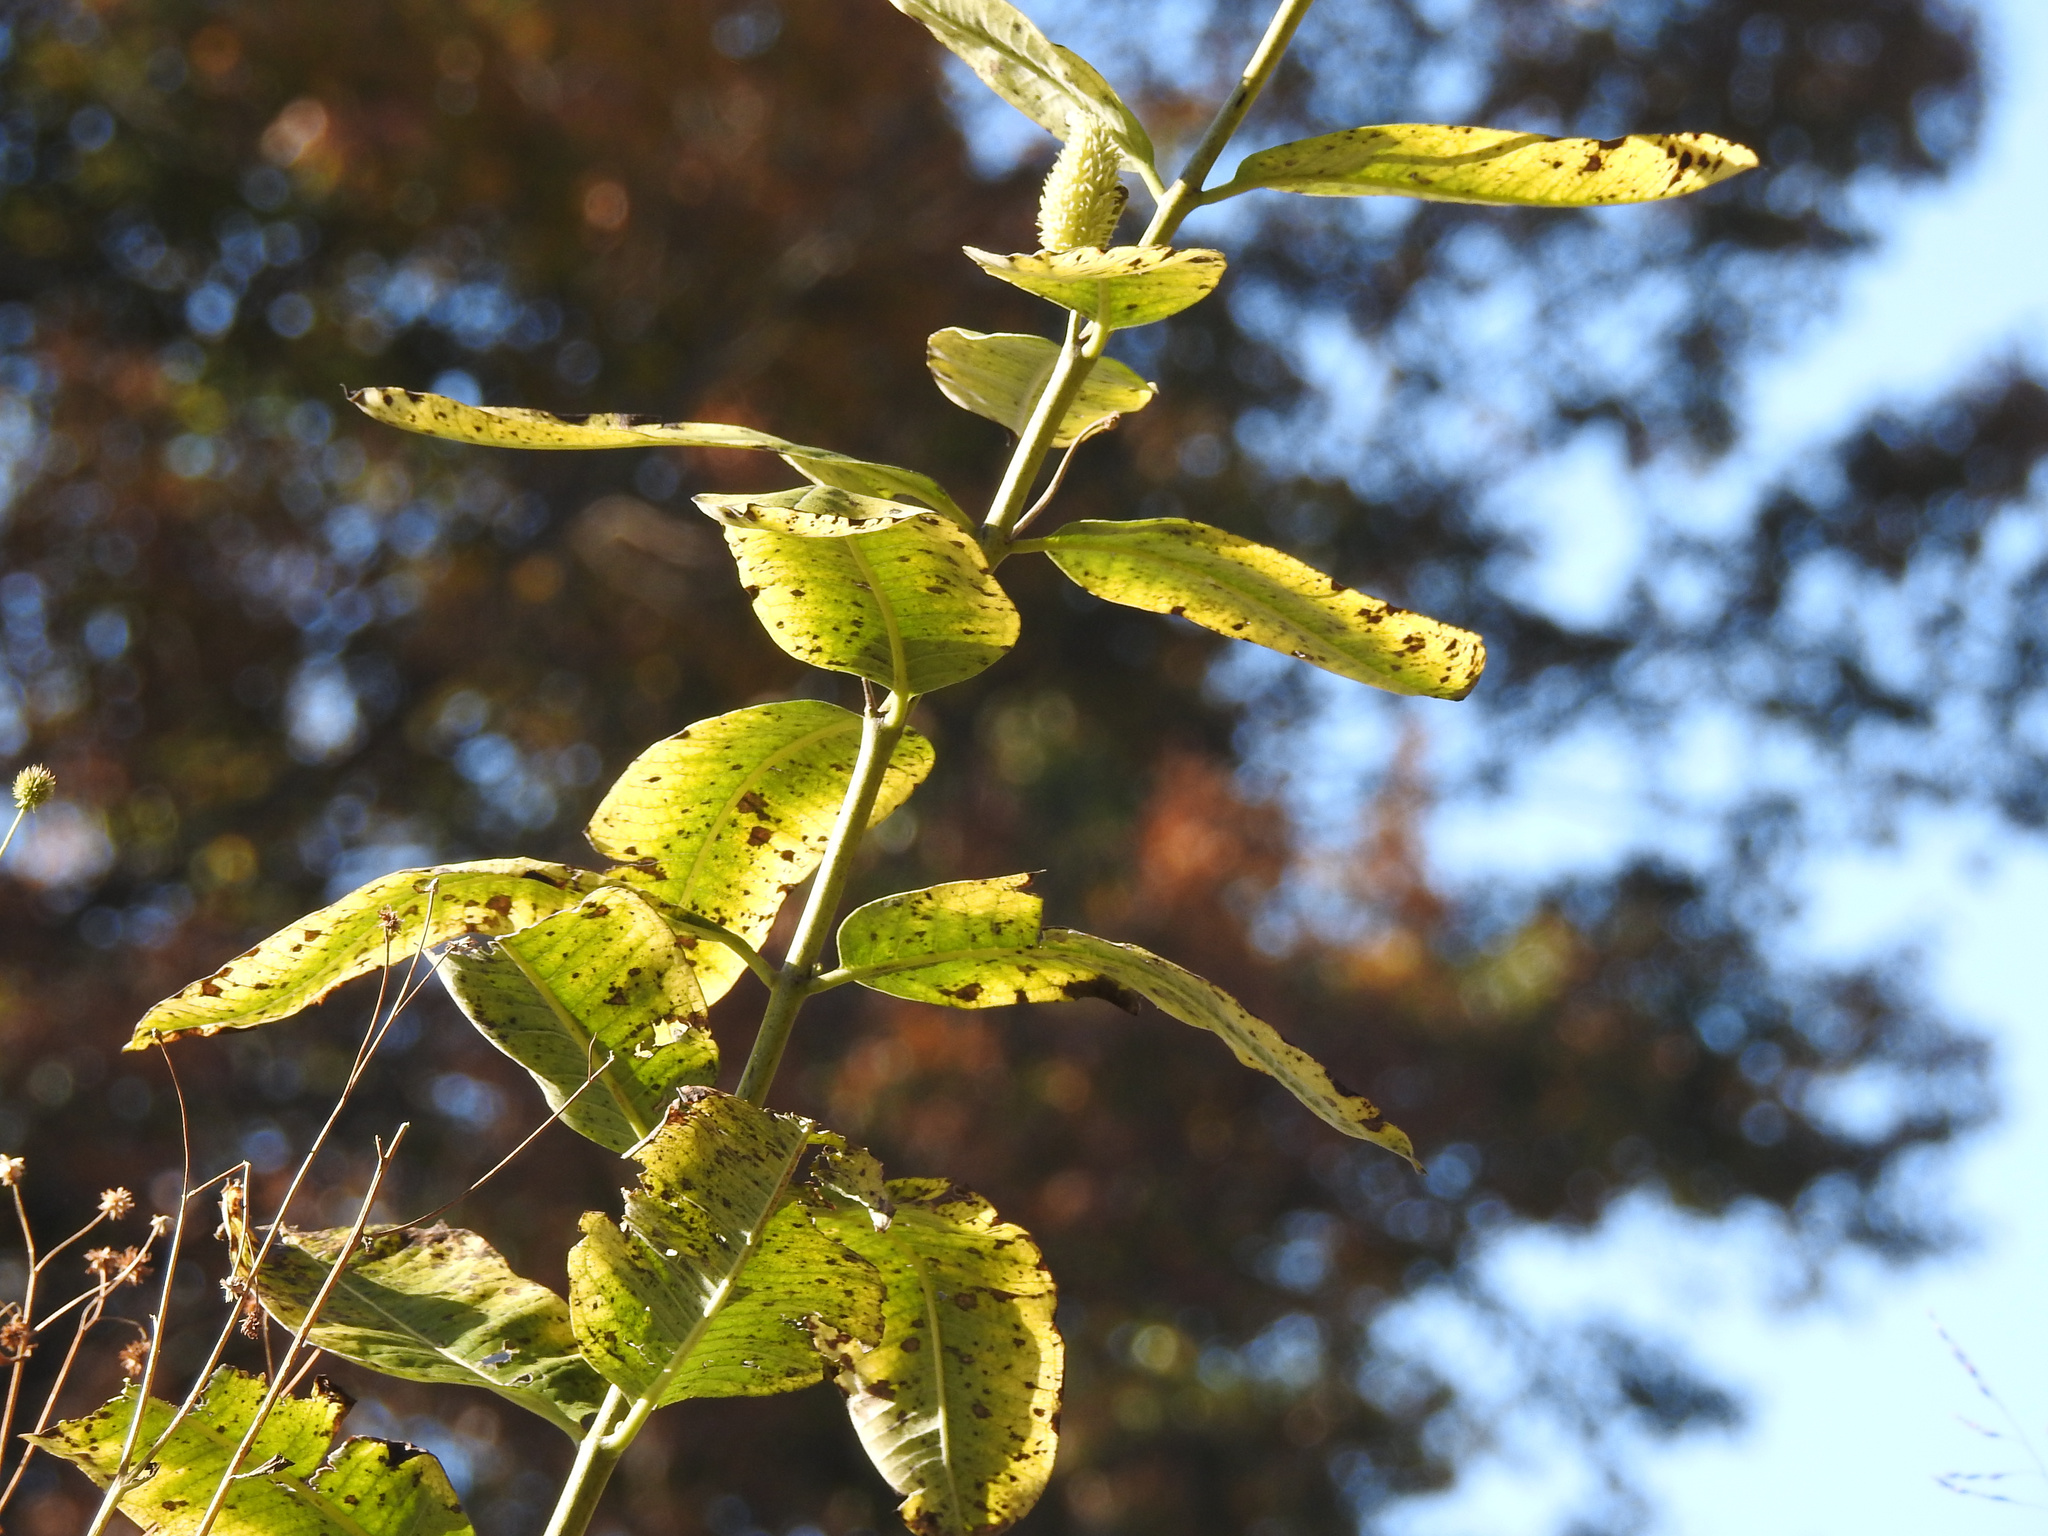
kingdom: Plantae
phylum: Tracheophyta
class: Magnoliopsida
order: Gentianales
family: Apocynaceae
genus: Asclepias
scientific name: Asclepias syriaca
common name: Common milkweed
